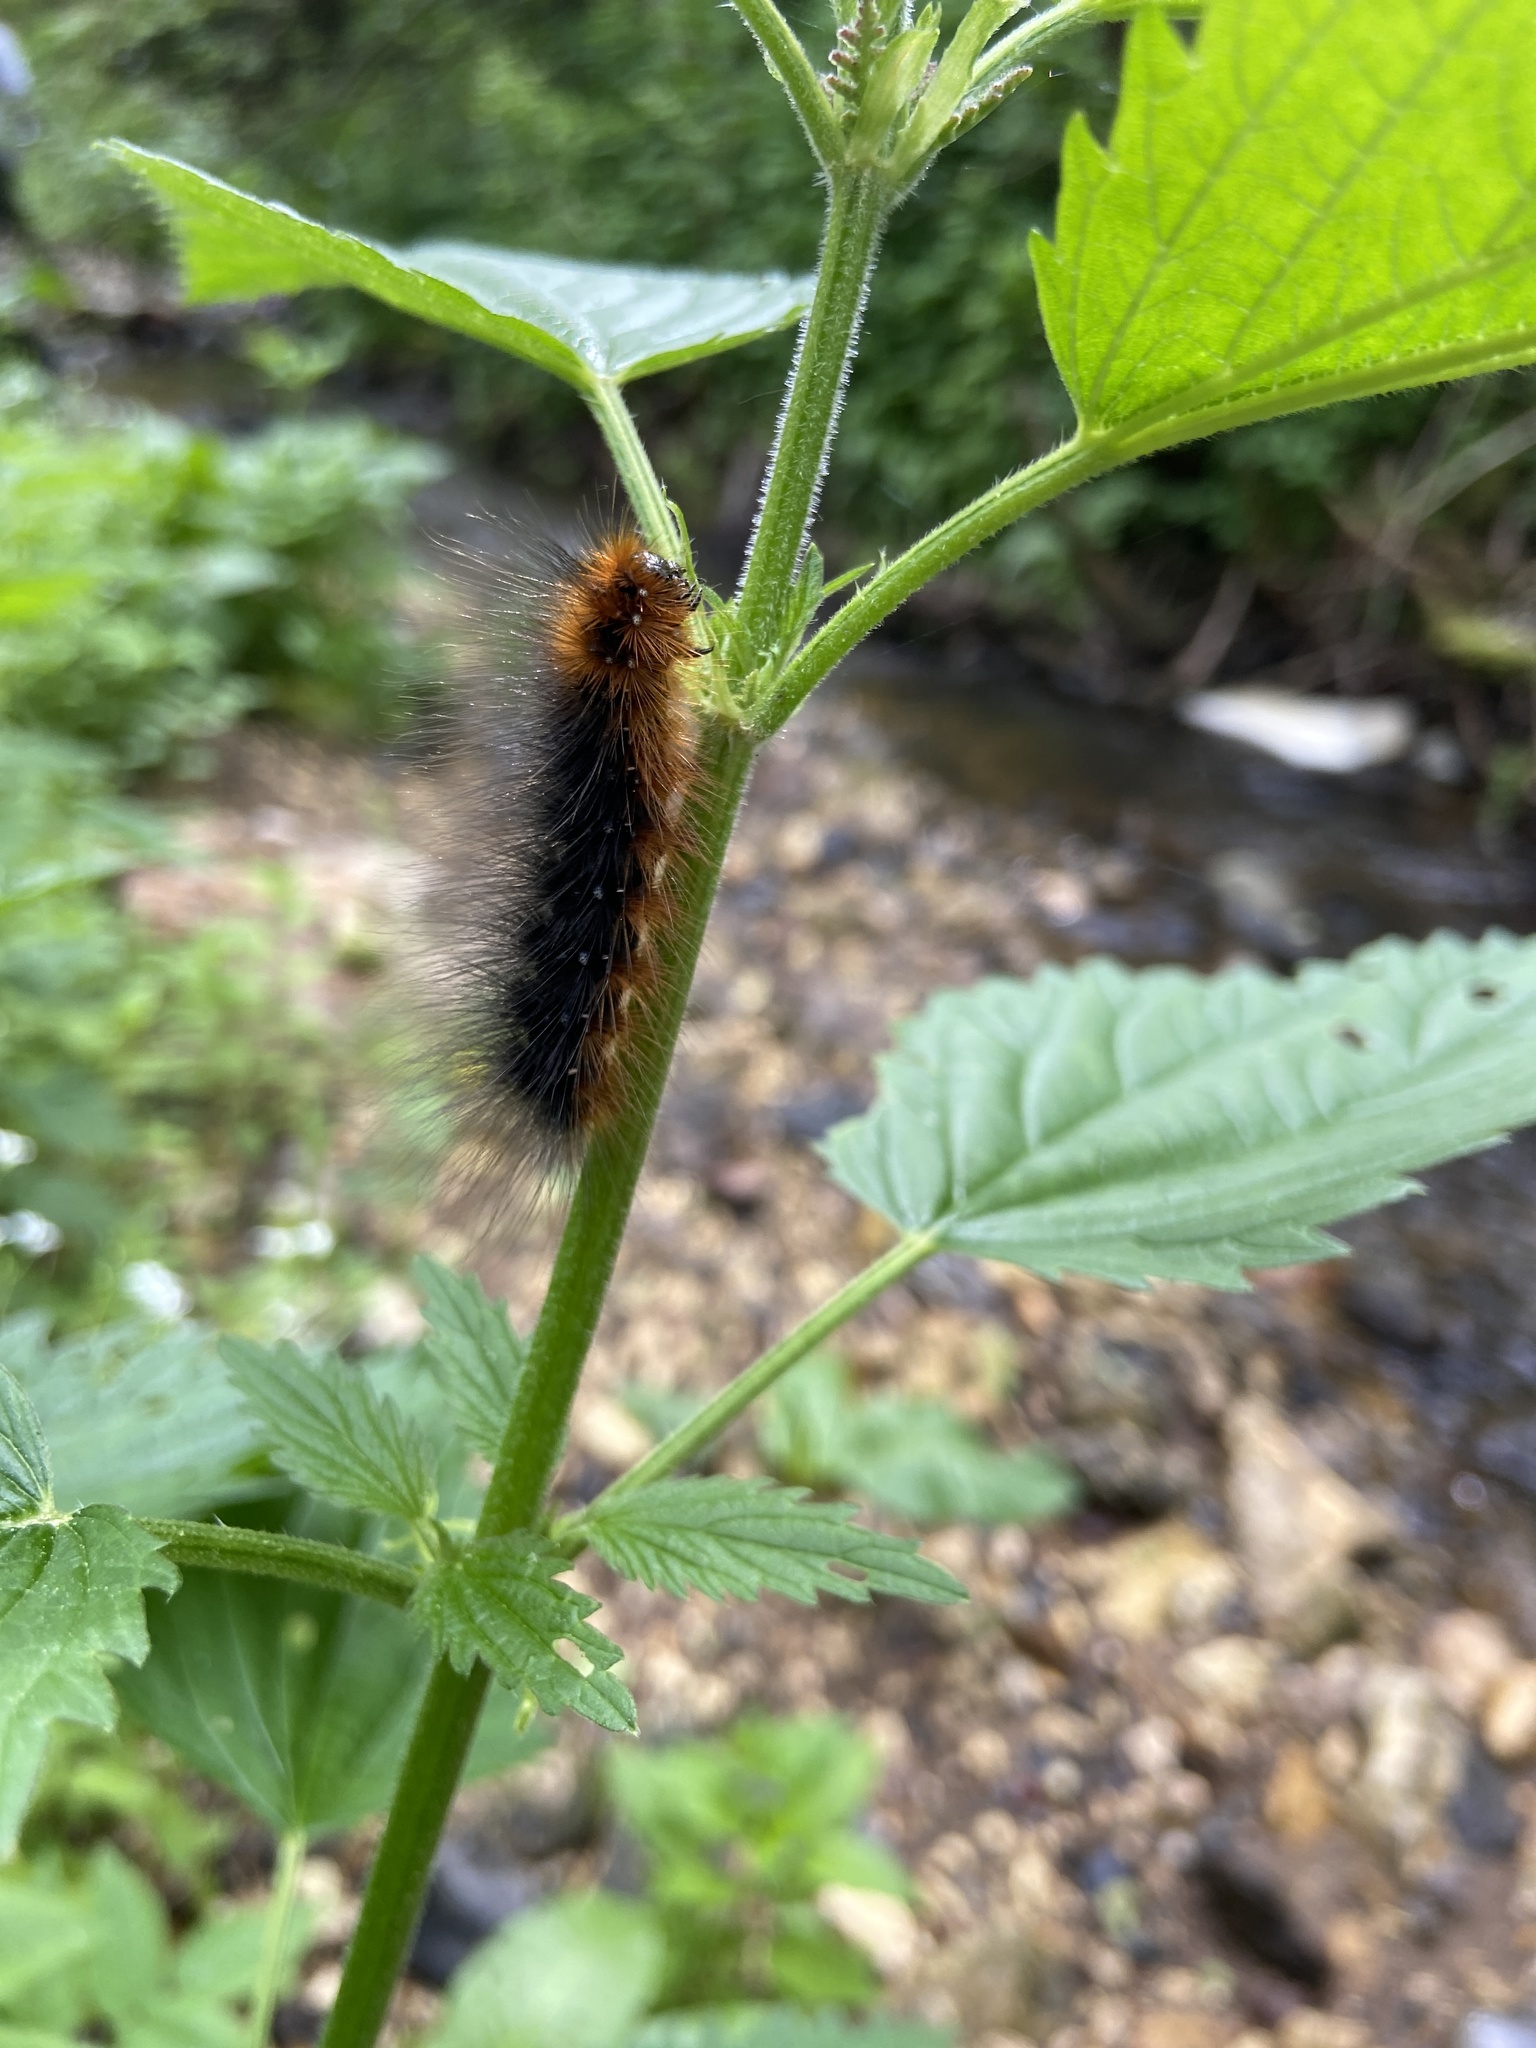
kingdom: Animalia
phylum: Arthropoda
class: Insecta
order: Lepidoptera
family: Erebidae
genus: Arctia
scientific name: Arctia caja
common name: Garden tiger
